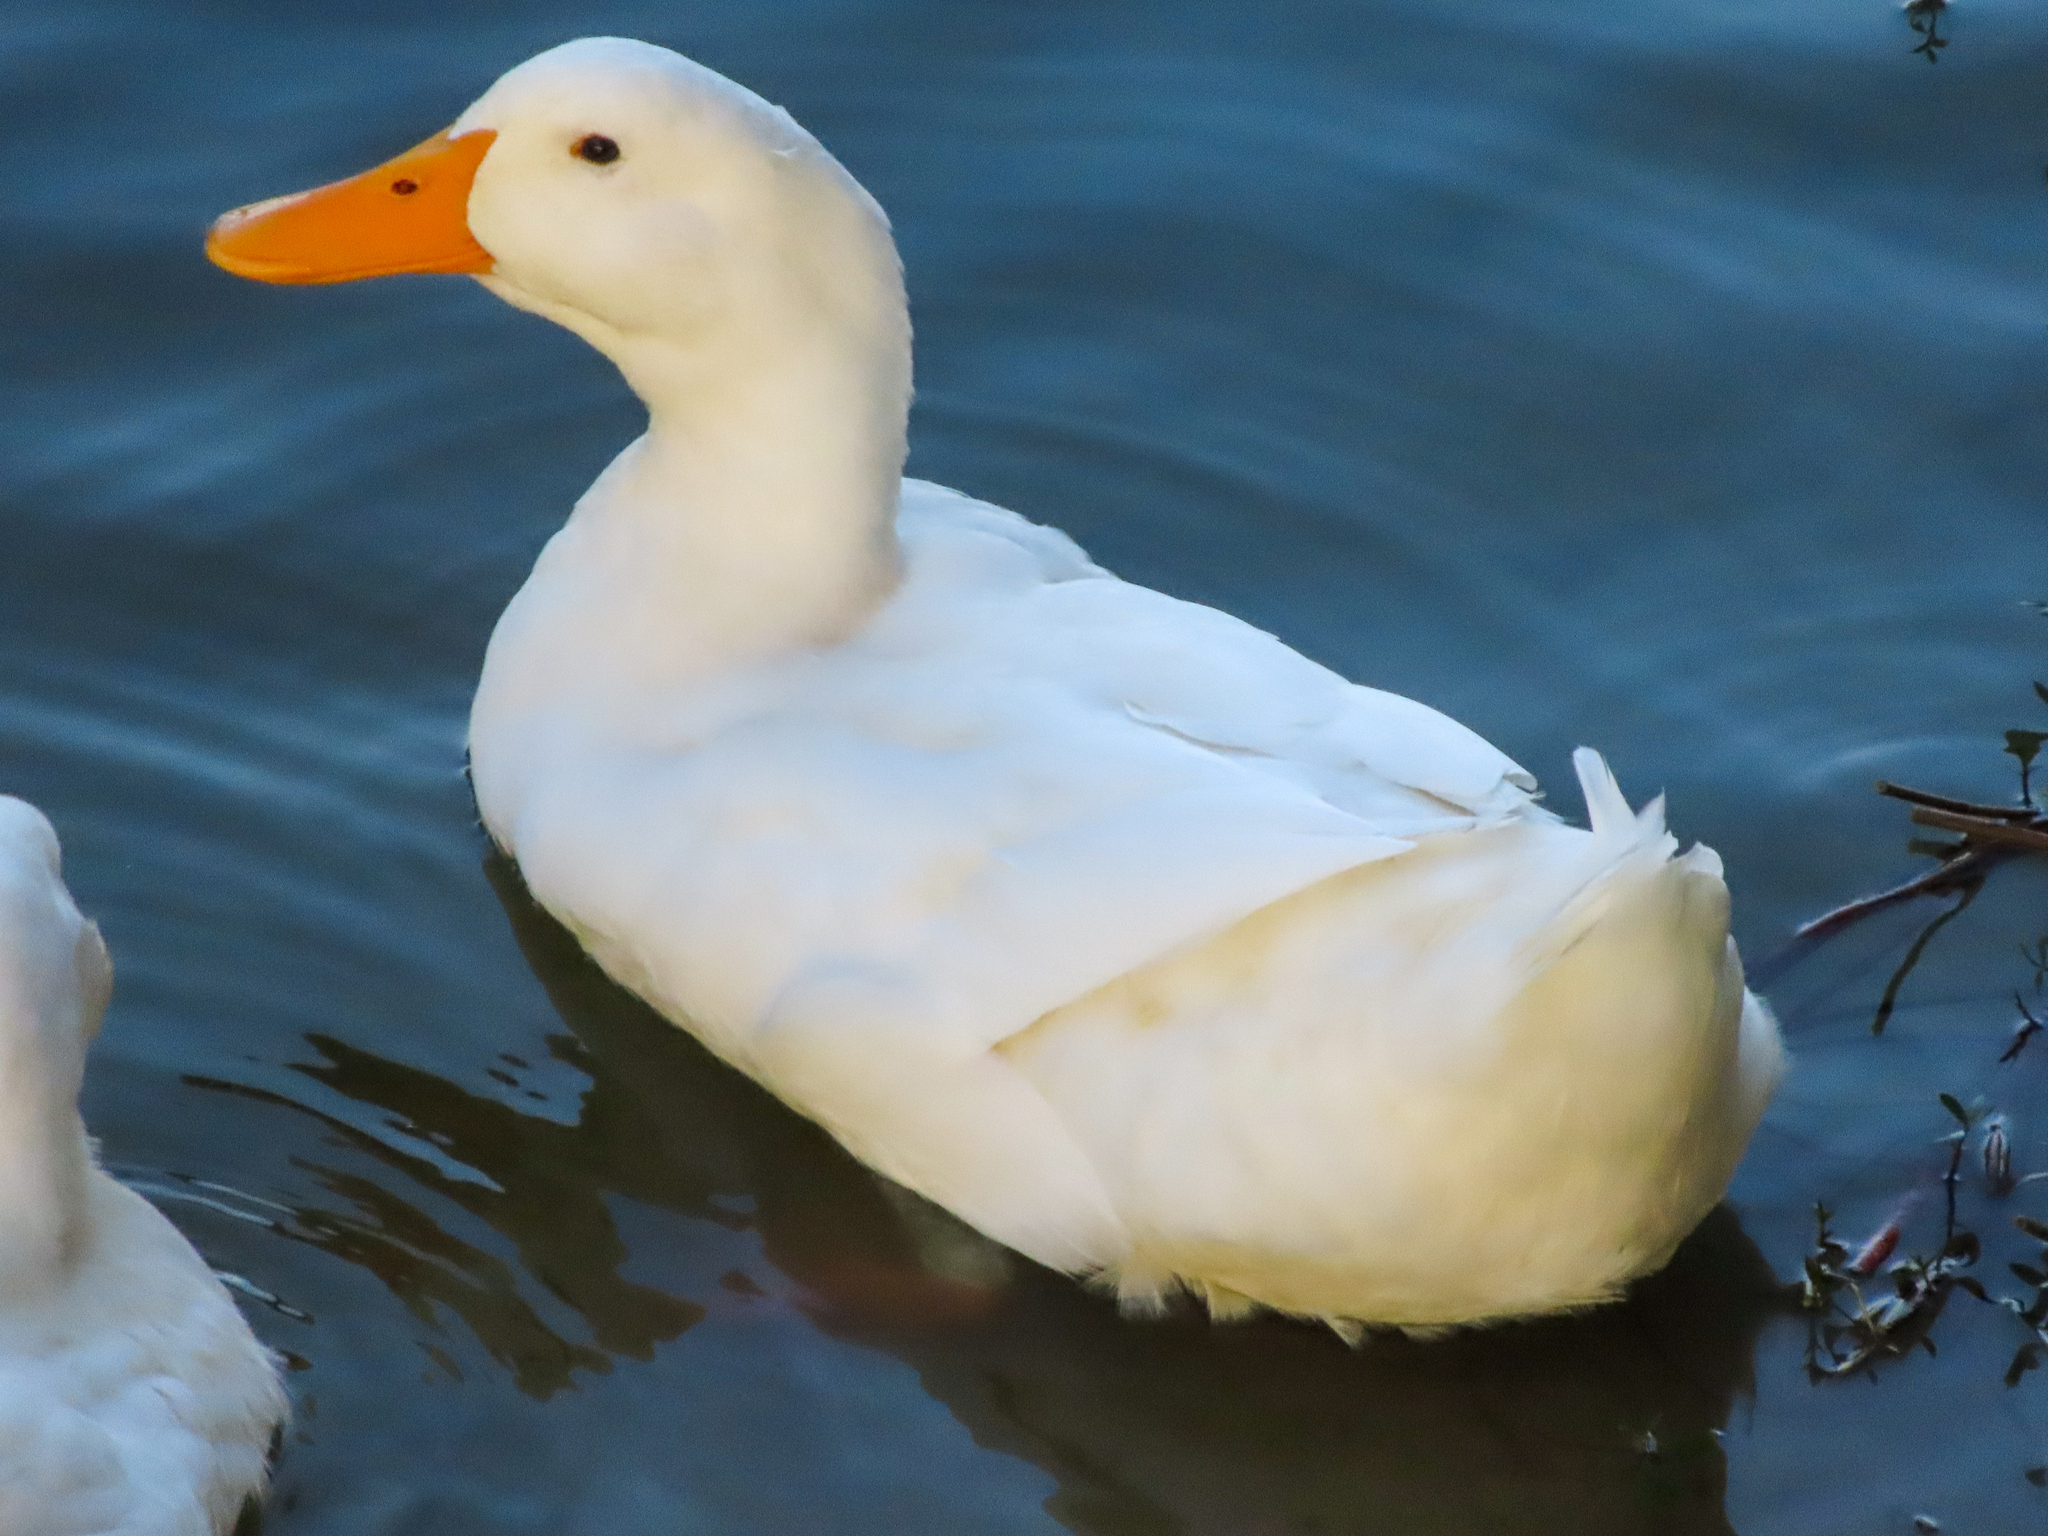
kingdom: Animalia
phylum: Chordata
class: Aves
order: Anseriformes
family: Anatidae
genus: Anas
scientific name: Anas platyrhynchos
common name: Mallard
